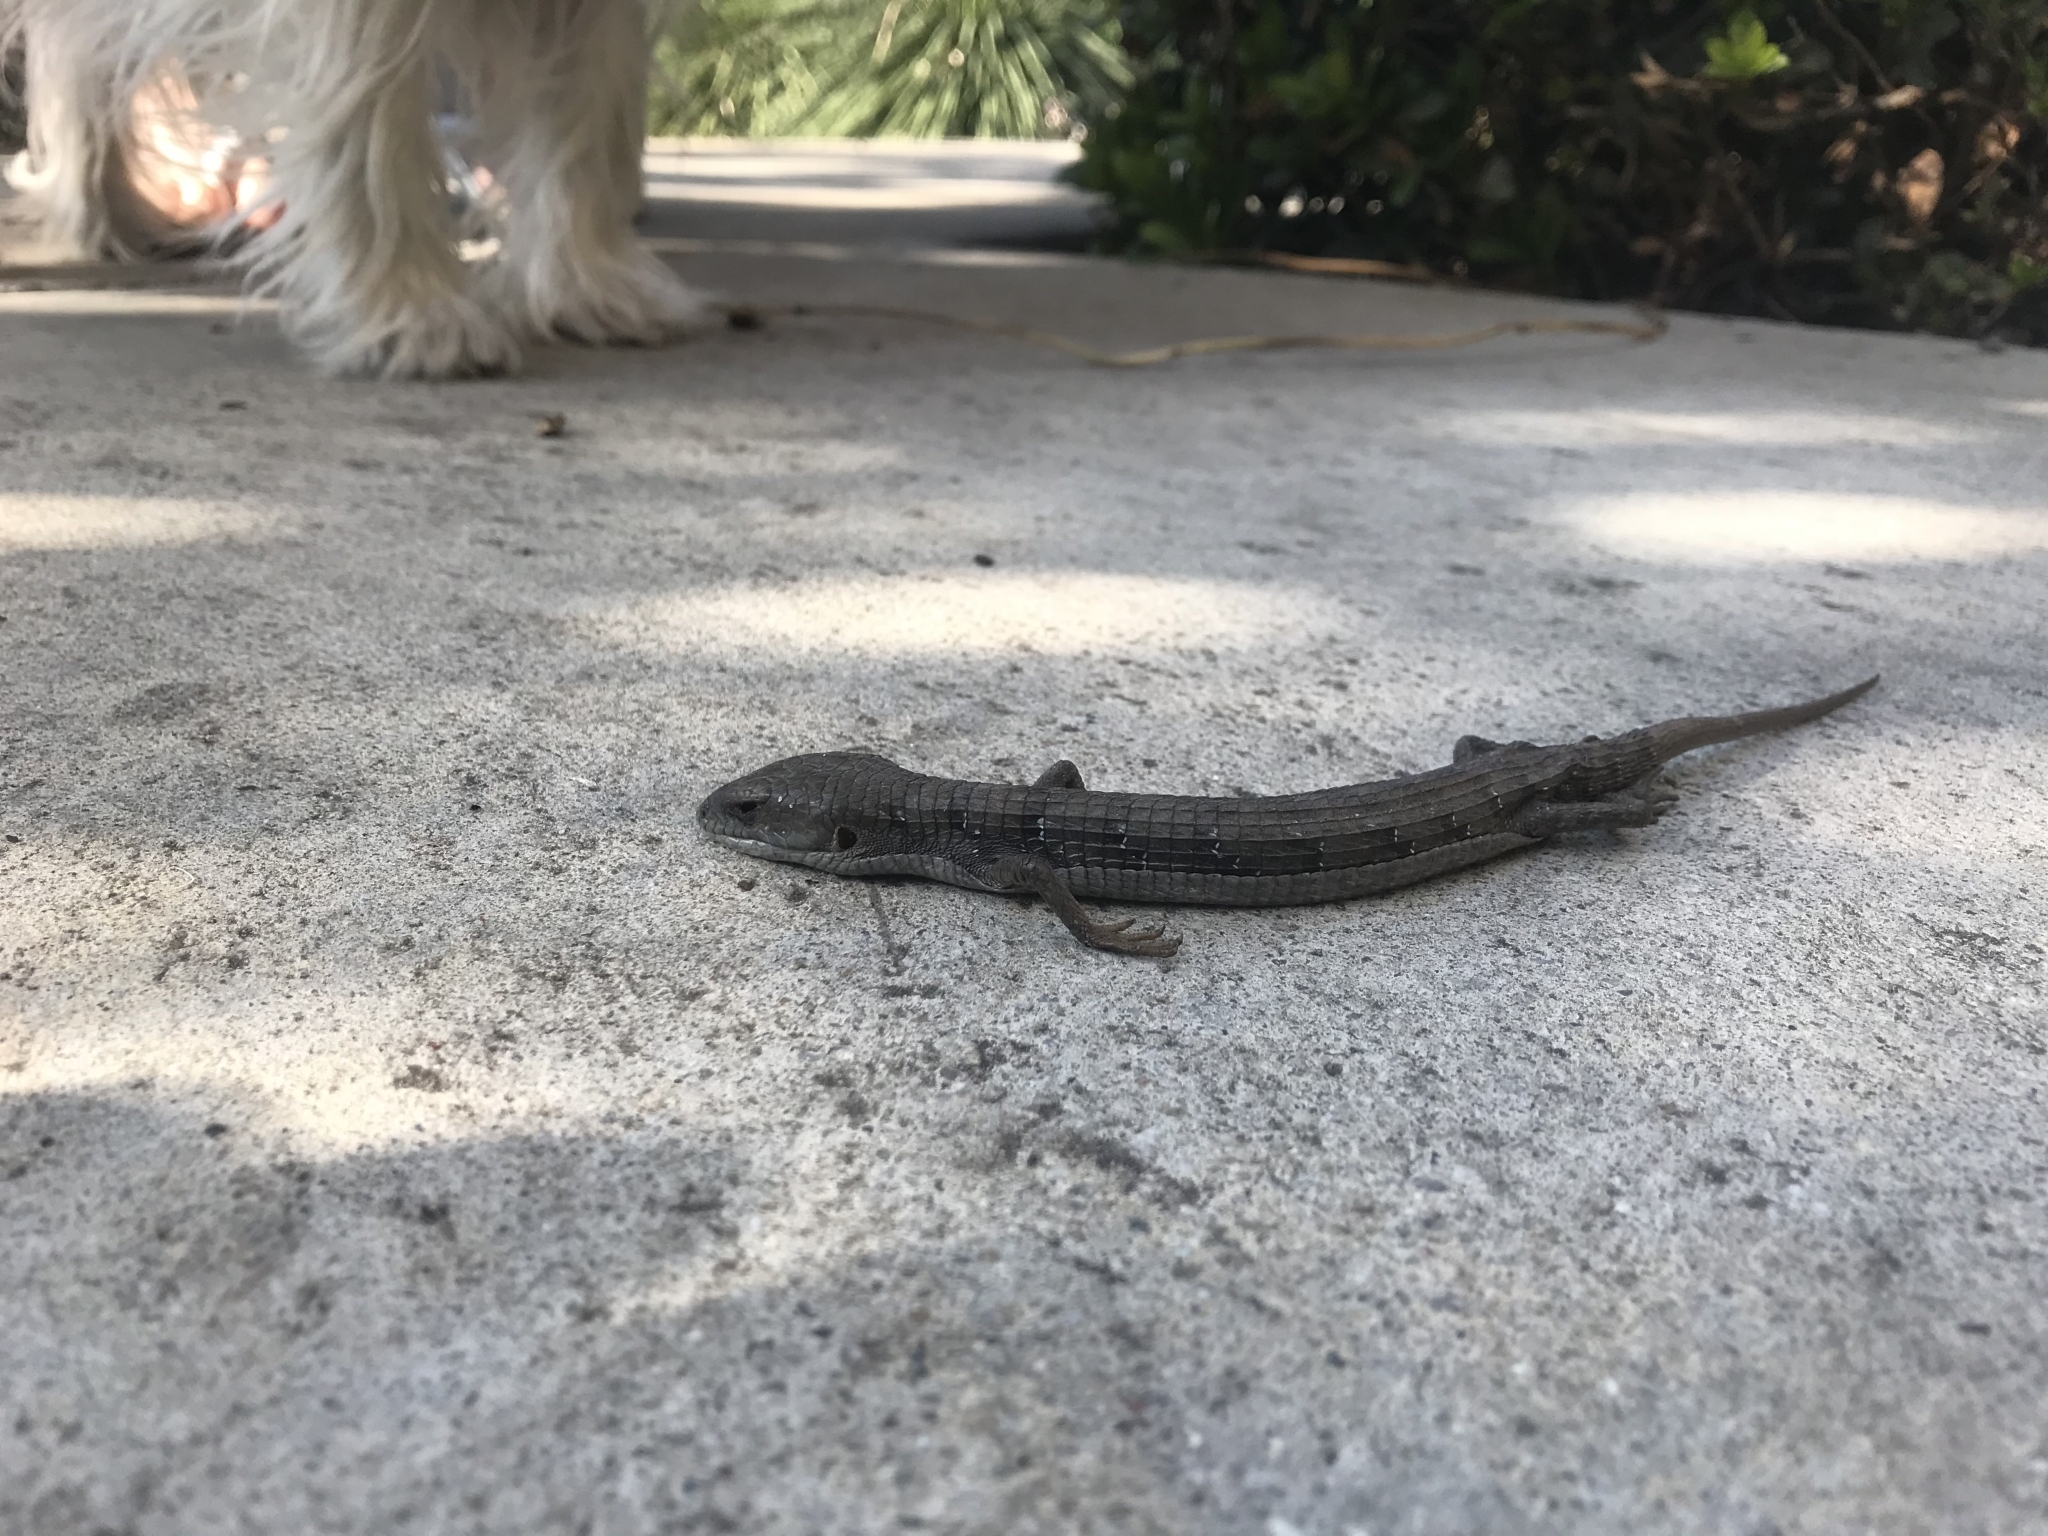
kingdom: Animalia
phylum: Chordata
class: Squamata
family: Anguidae
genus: Elgaria
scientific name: Elgaria multicarinata
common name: Southern alligator lizard
